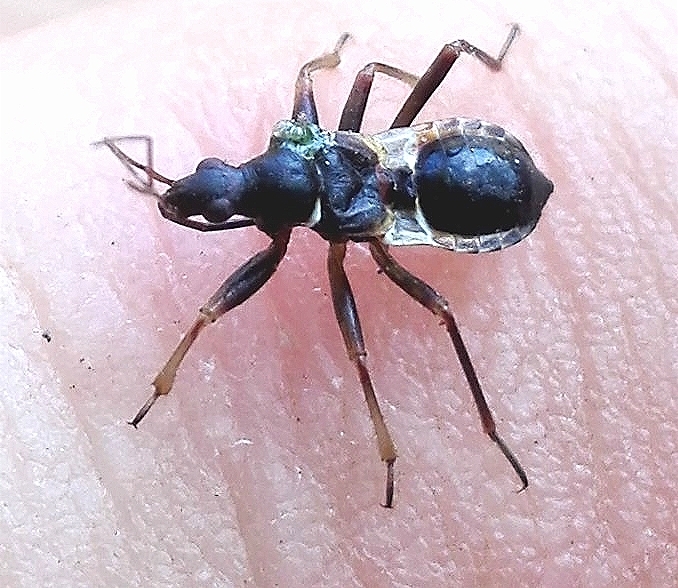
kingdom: Animalia
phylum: Arthropoda
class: Insecta
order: Hemiptera
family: Nabidae
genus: Himacerus
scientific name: Himacerus mirmicoides
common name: Ant damsel bug
